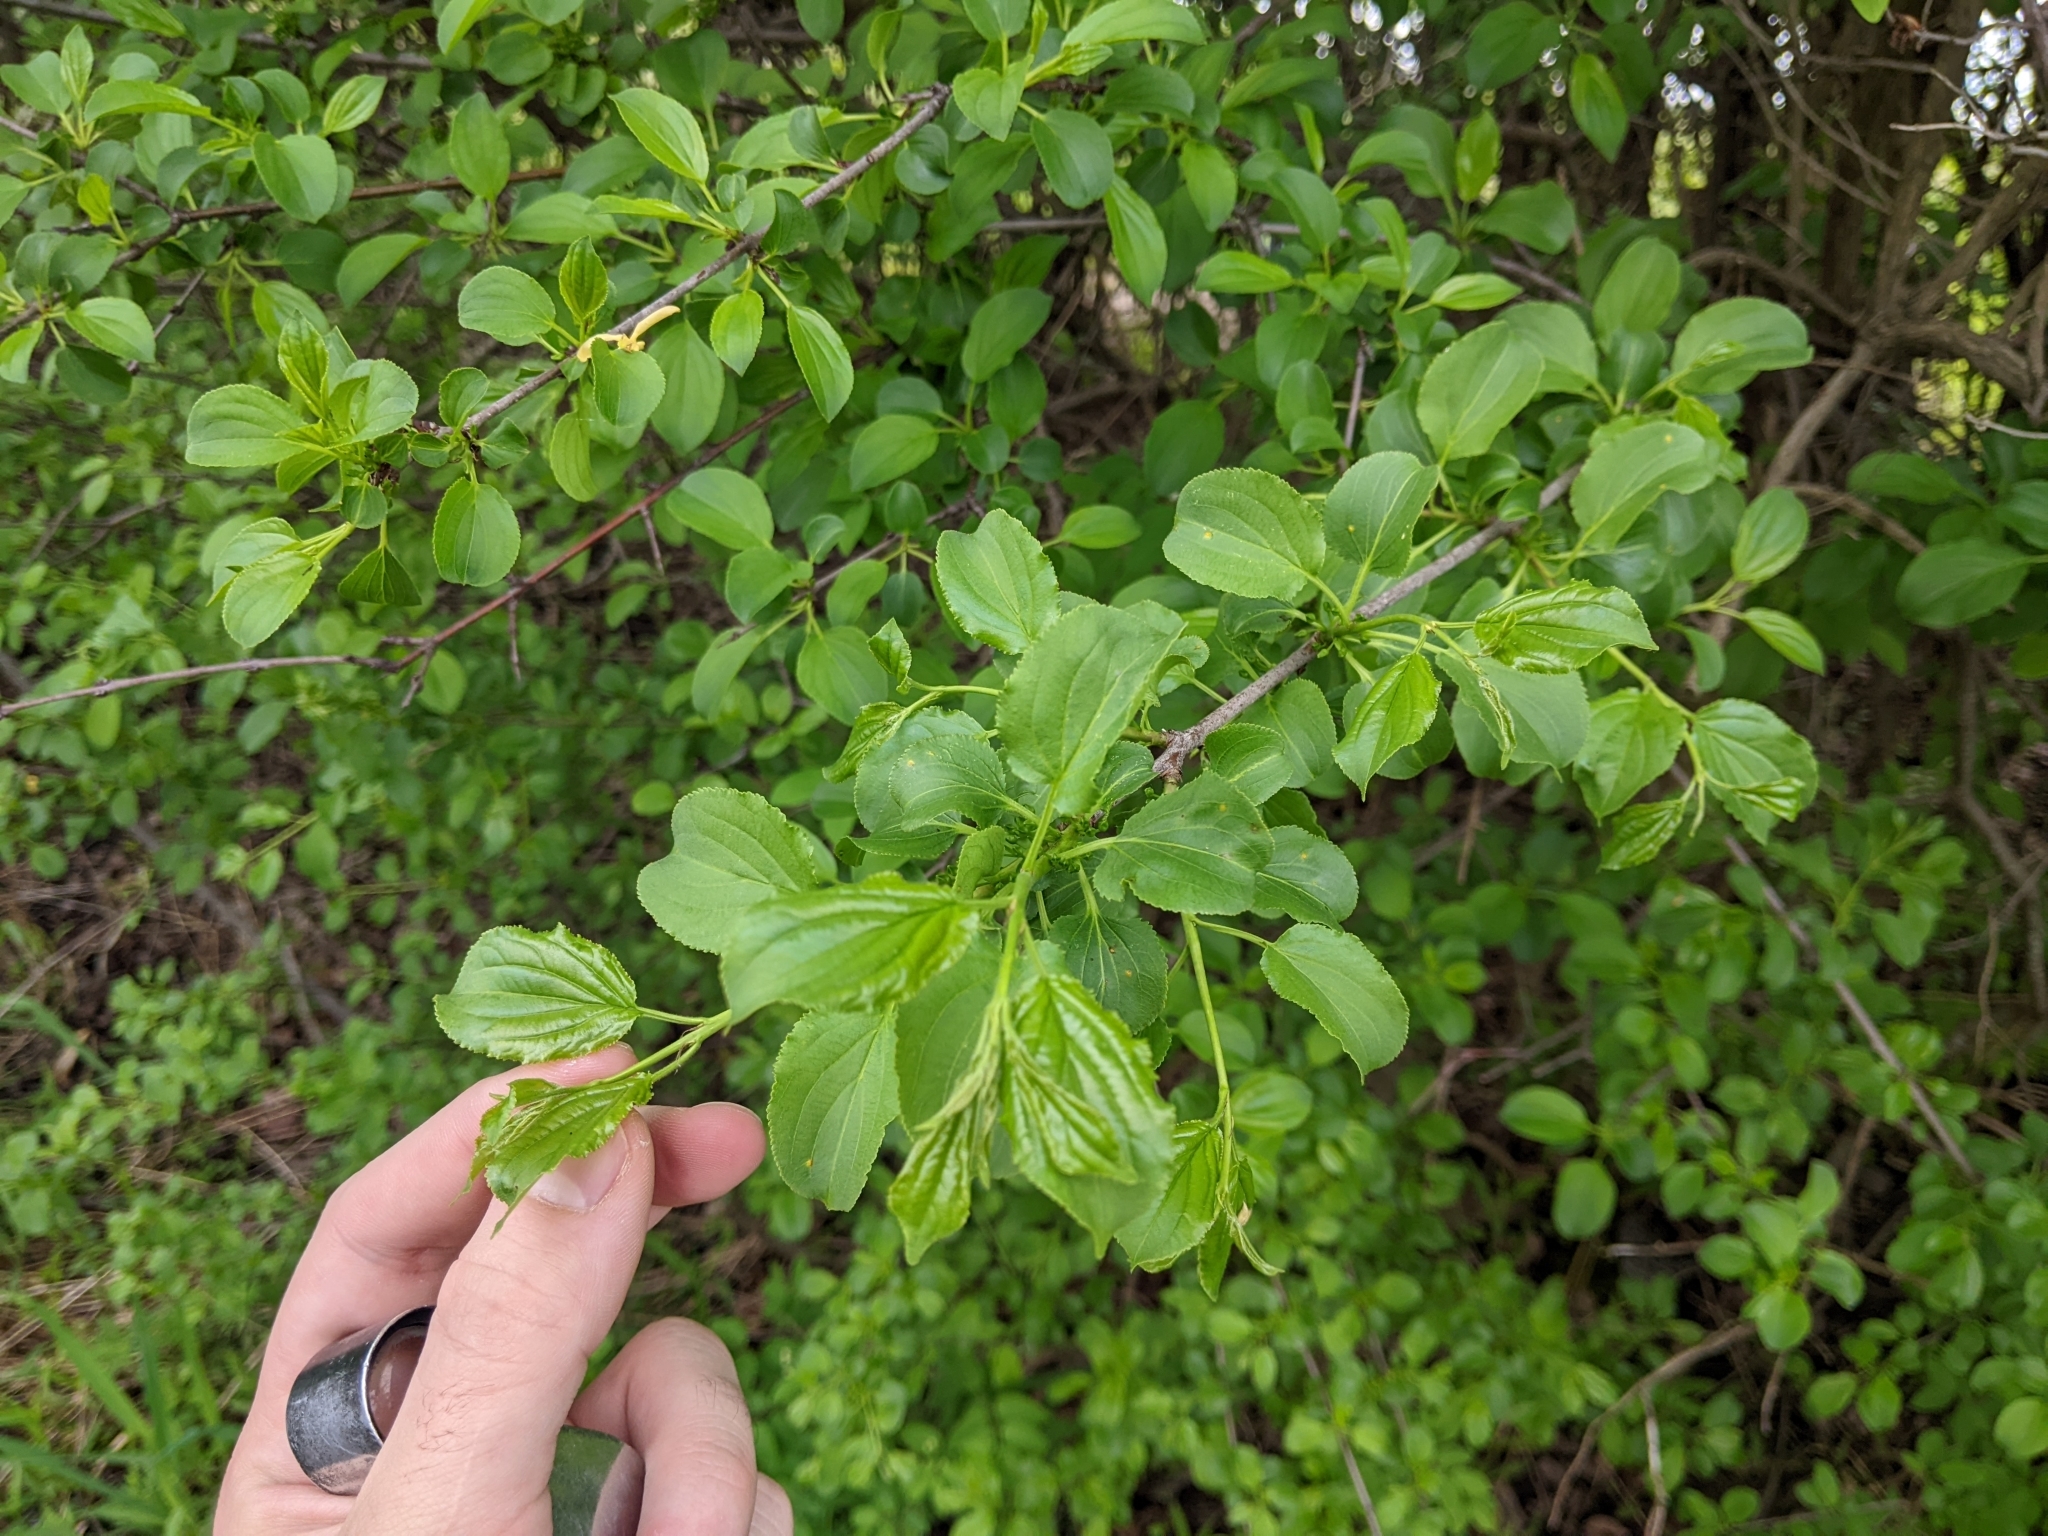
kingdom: Fungi
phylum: Basidiomycota
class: Pucciniomycetes
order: Pucciniales
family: Pucciniaceae
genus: Puccinia
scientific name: Puccinia coronata
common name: Crown rust
